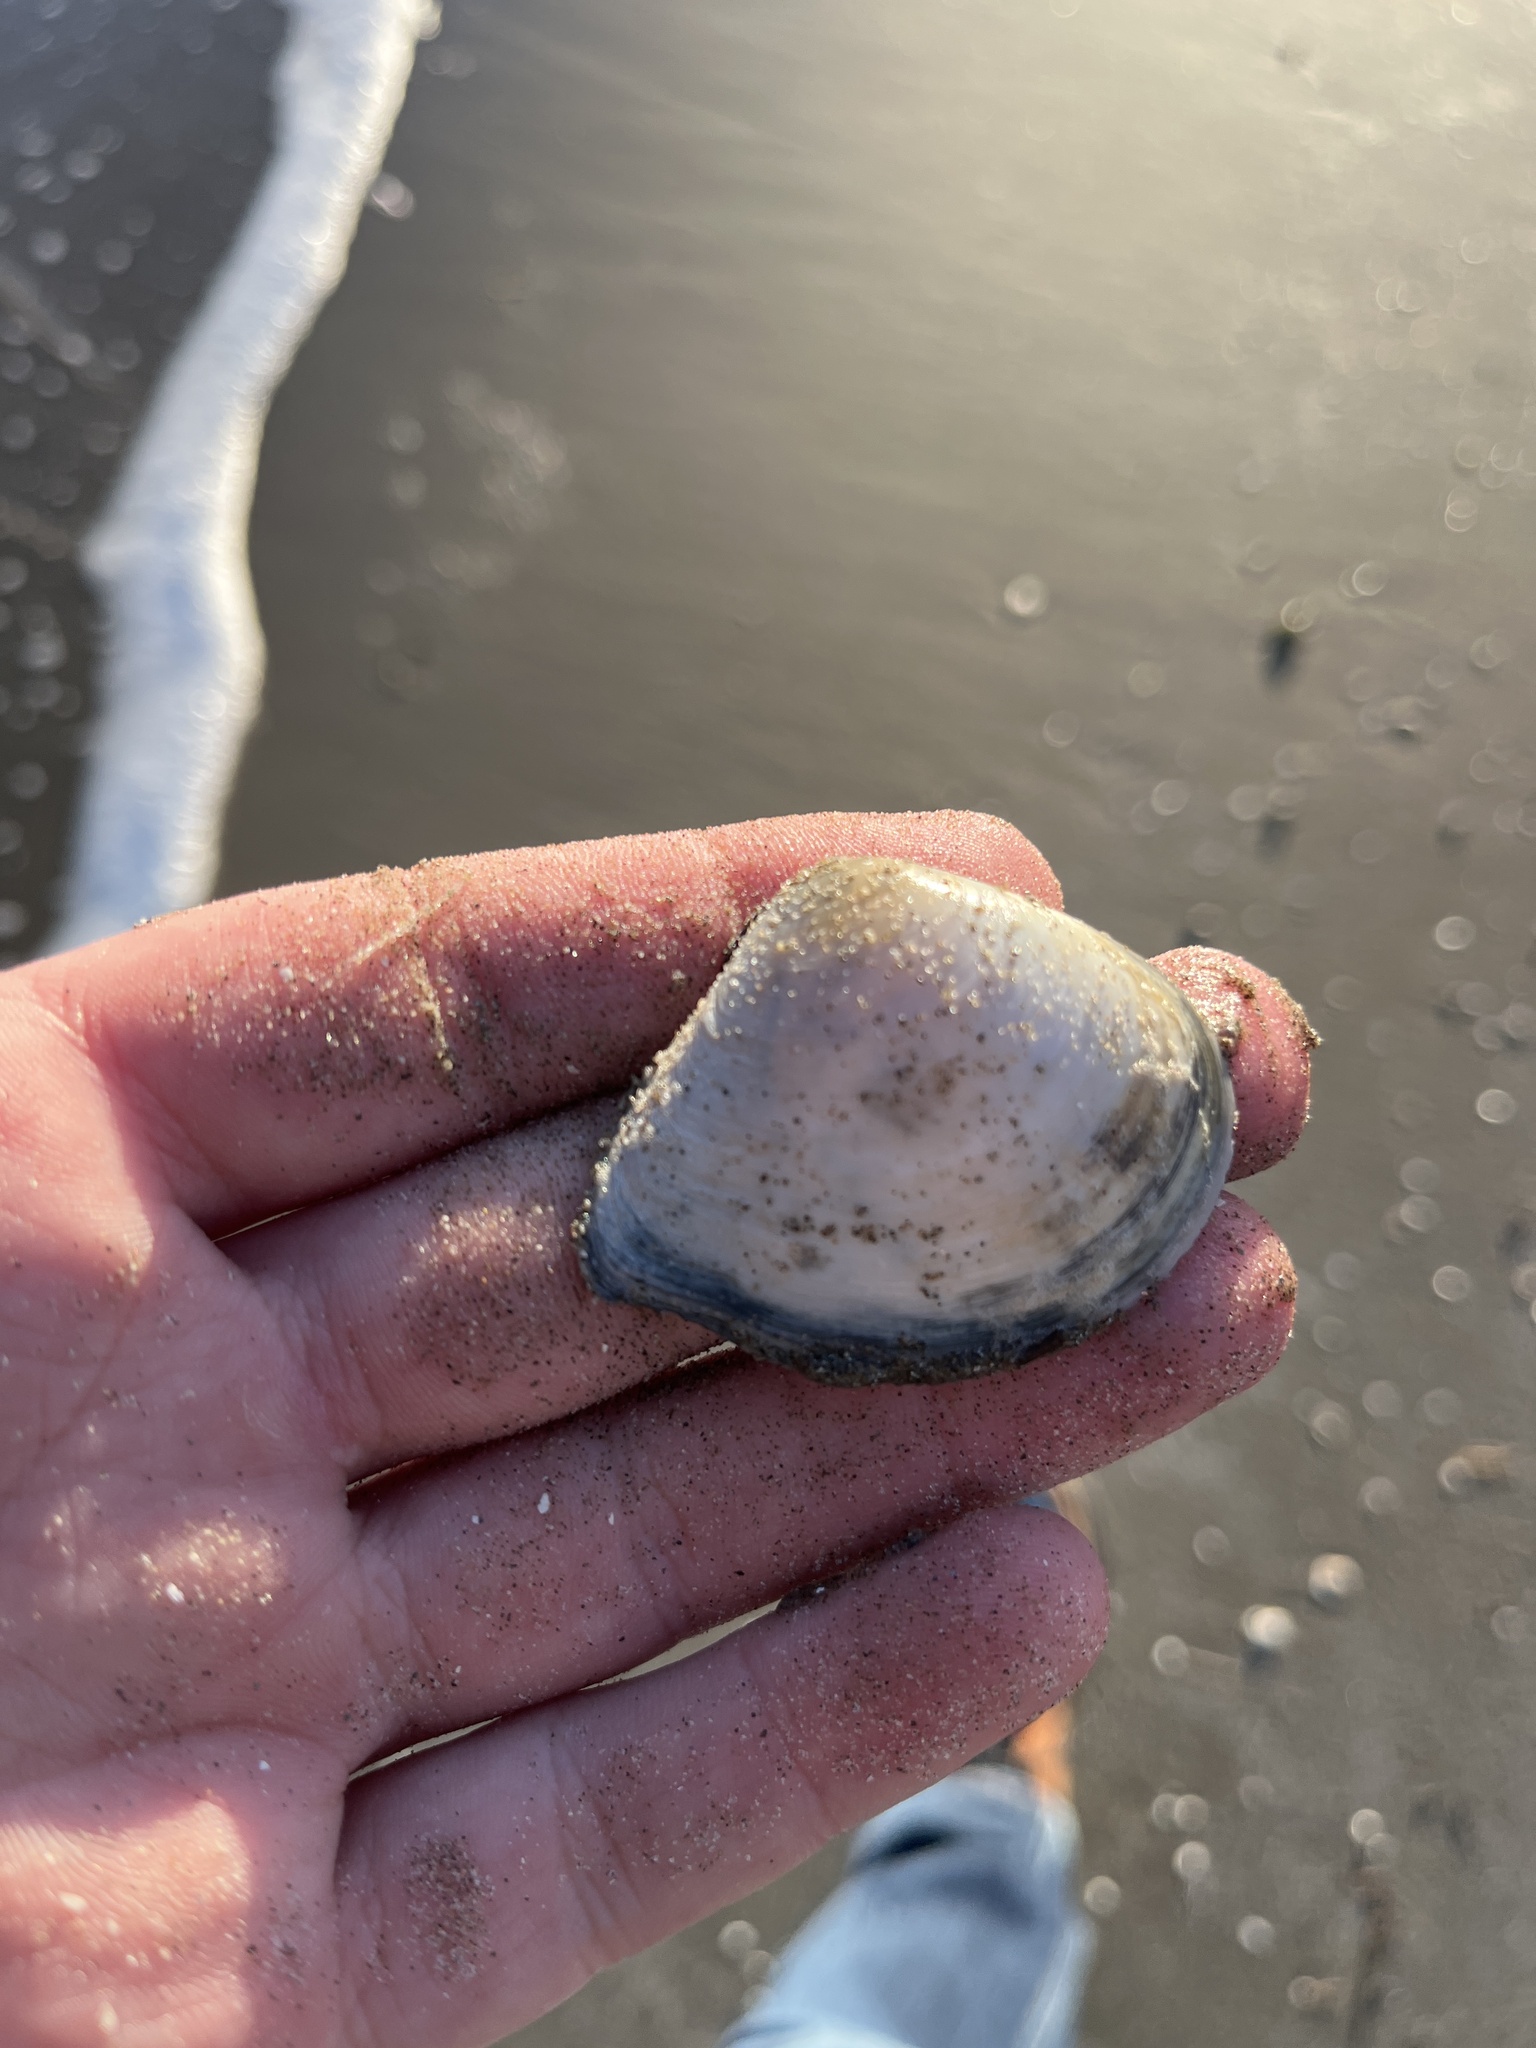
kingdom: Animalia
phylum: Mollusca
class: Bivalvia
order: Cardiida
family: Tellinidae
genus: Austromacoma
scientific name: Austromacoma constricta
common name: Constricted macoma
